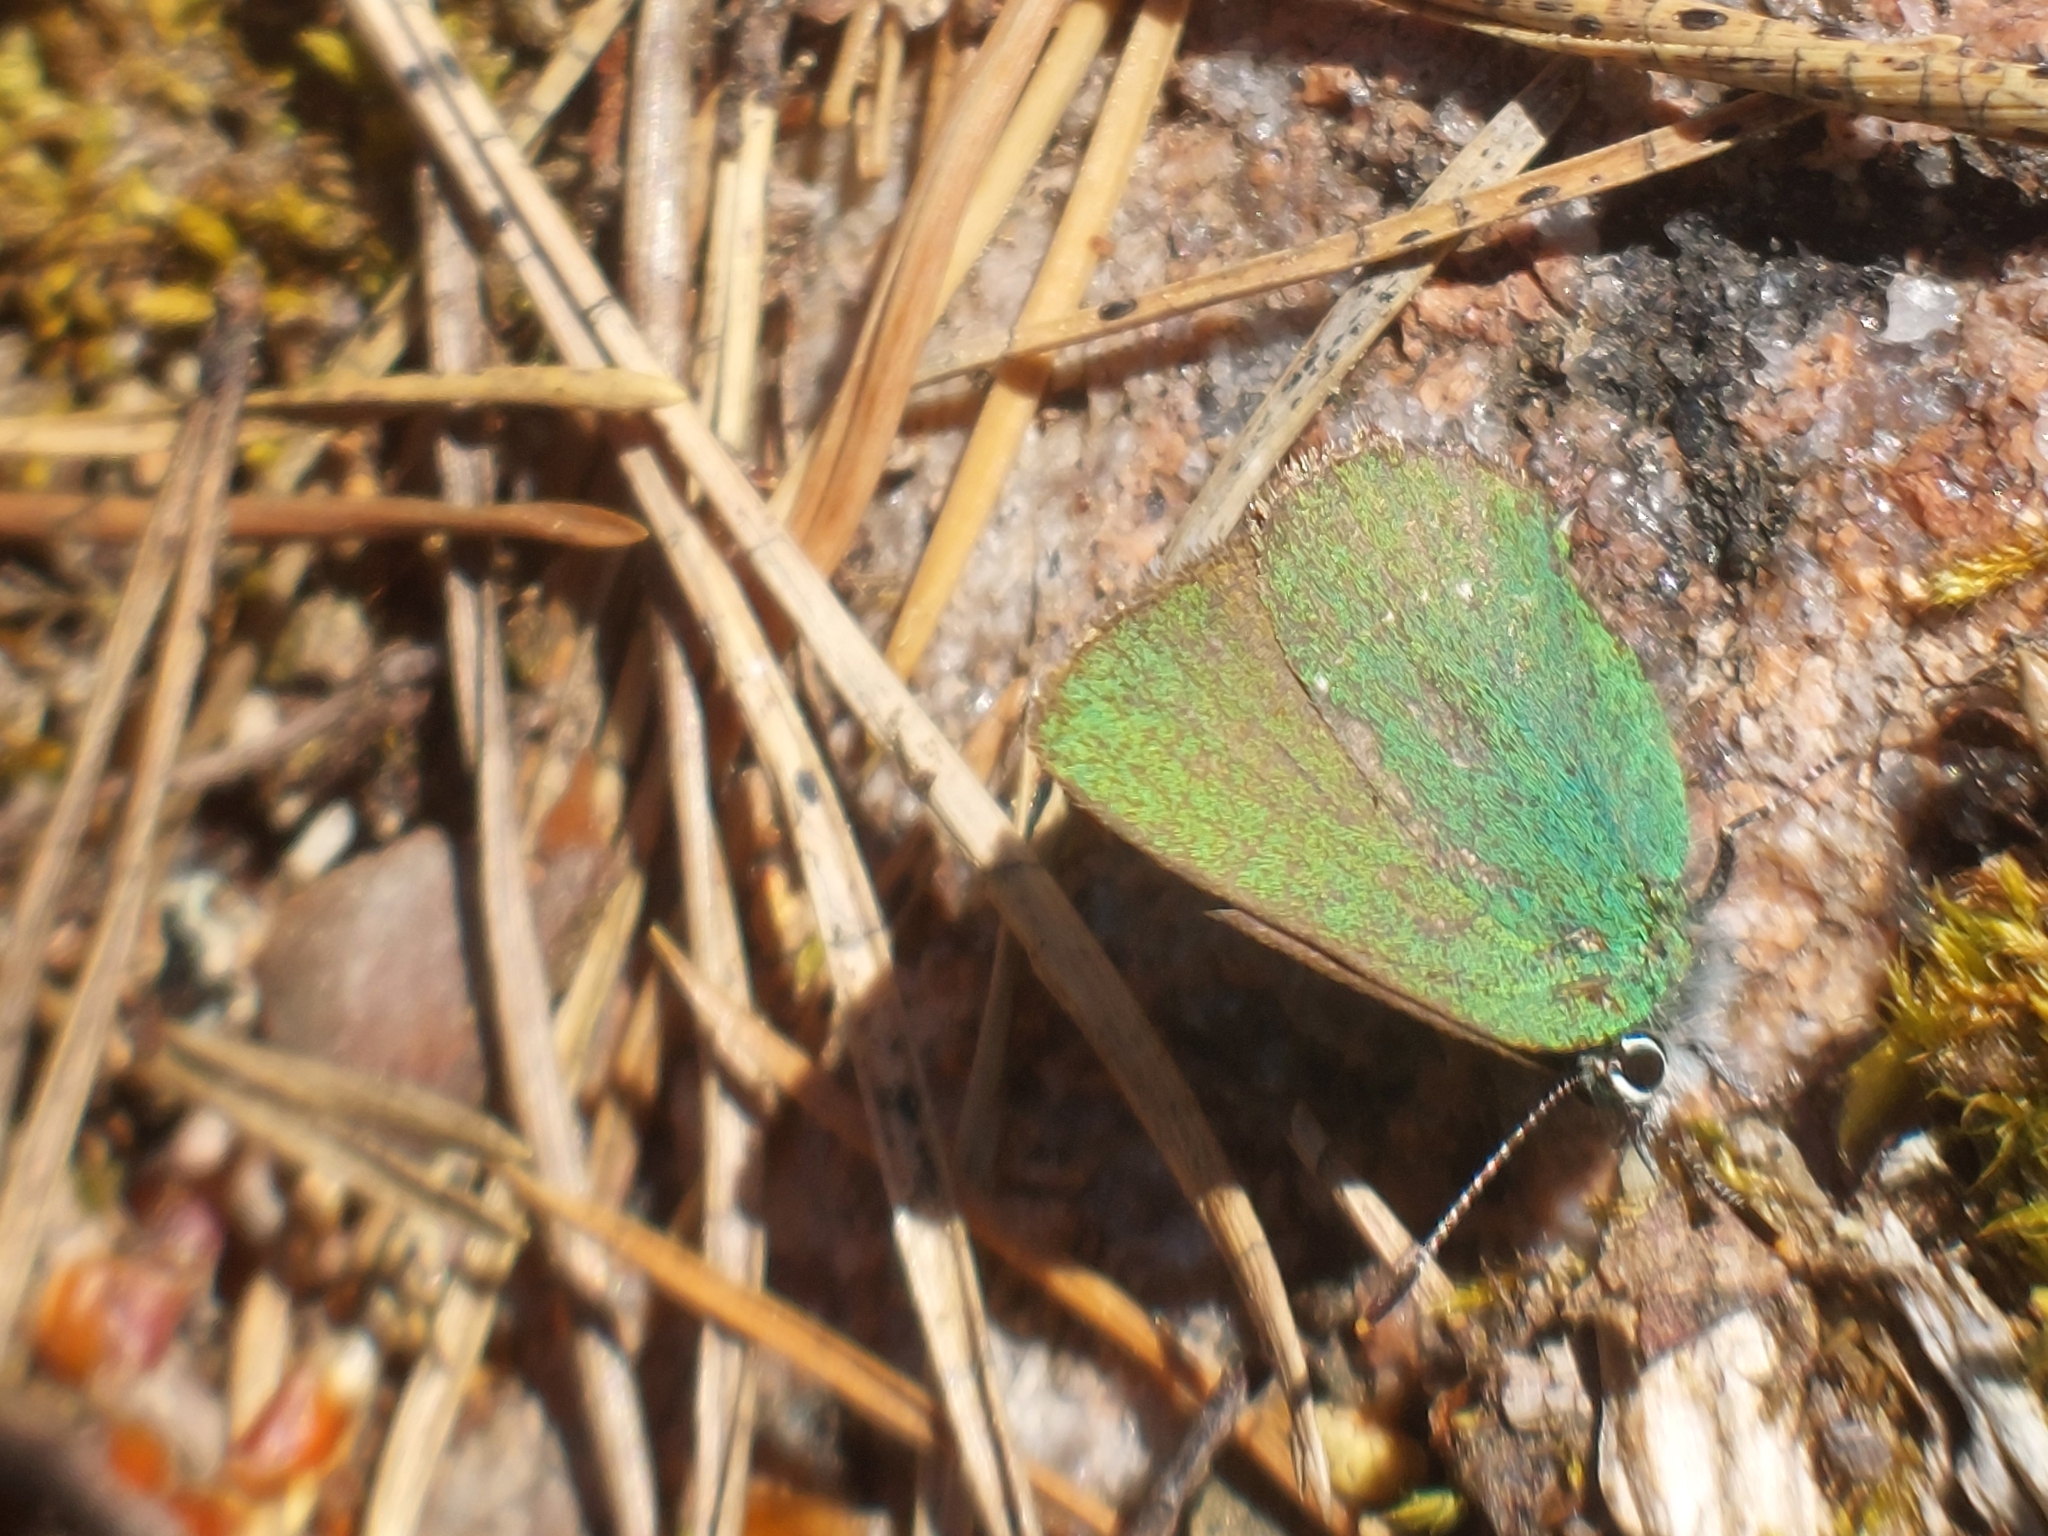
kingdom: Animalia
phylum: Arthropoda
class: Insecta
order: Lepidoptera
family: Lycaenidae
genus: Callophrys
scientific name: Callophrys rubi
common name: Green hairstreak
